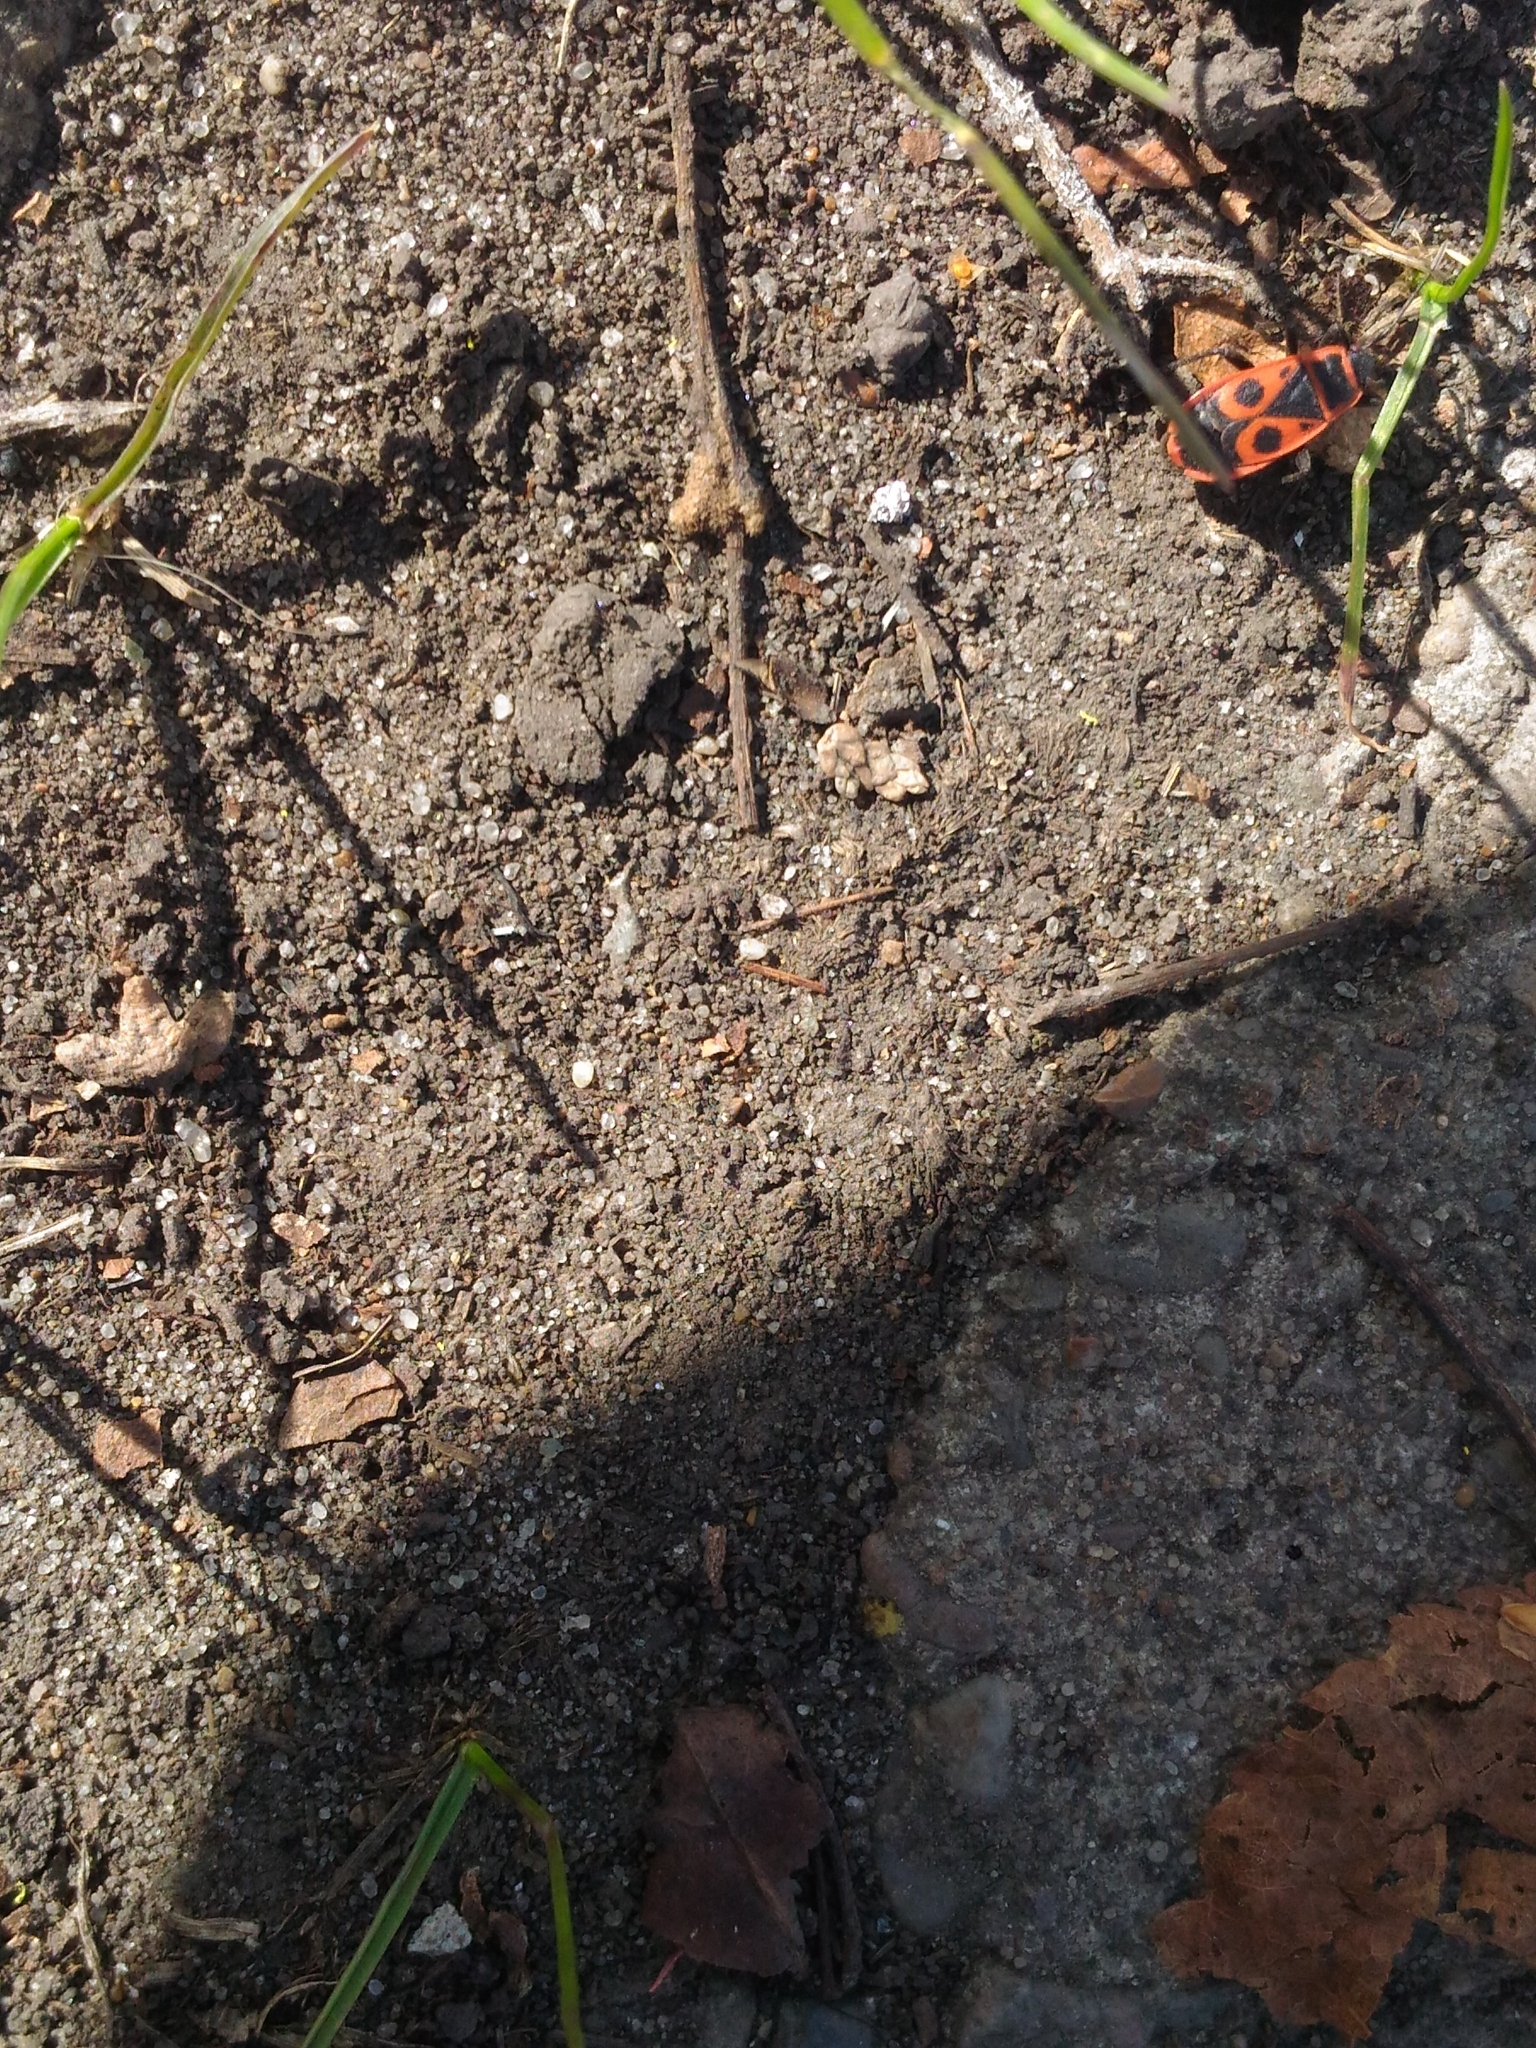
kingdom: Animalia
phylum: Arthropoda
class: Insecta
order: Hemiptera
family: Pyrrhocoridae
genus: Pyrrhocoris
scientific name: Pyrrhocoris apterus
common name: Firebug
